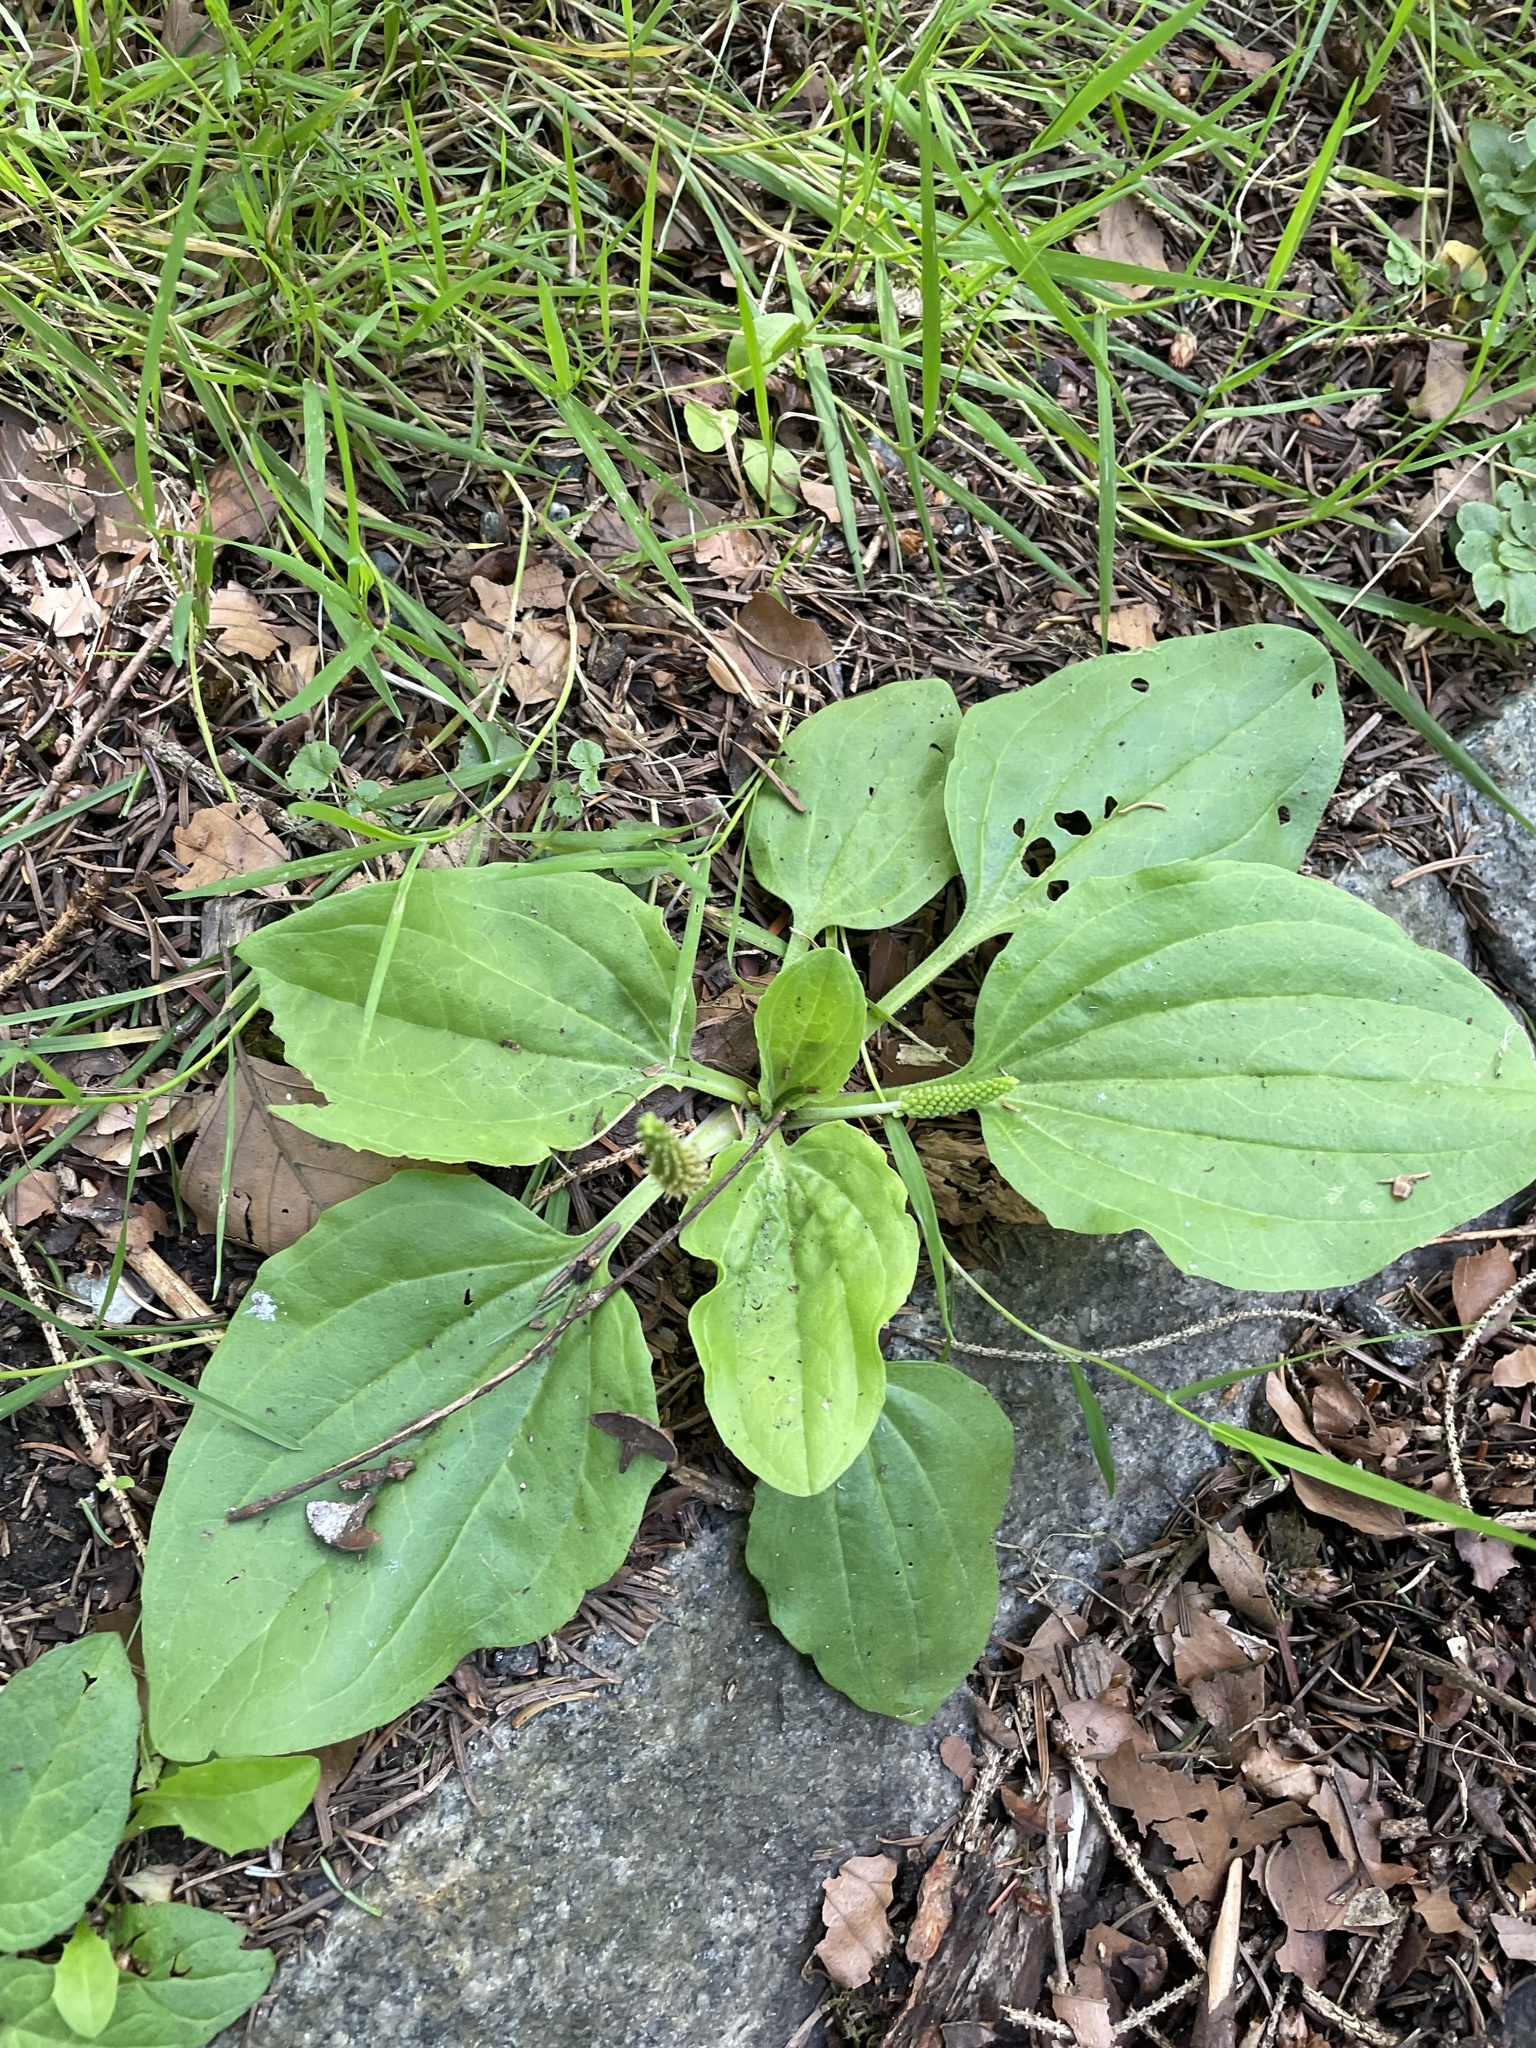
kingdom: Plantae
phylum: Tracheophyta
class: Magnoliopsida
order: Lamiales
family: Plantaginaceae
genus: Plantago
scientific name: Plantago major
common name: Common plantain
